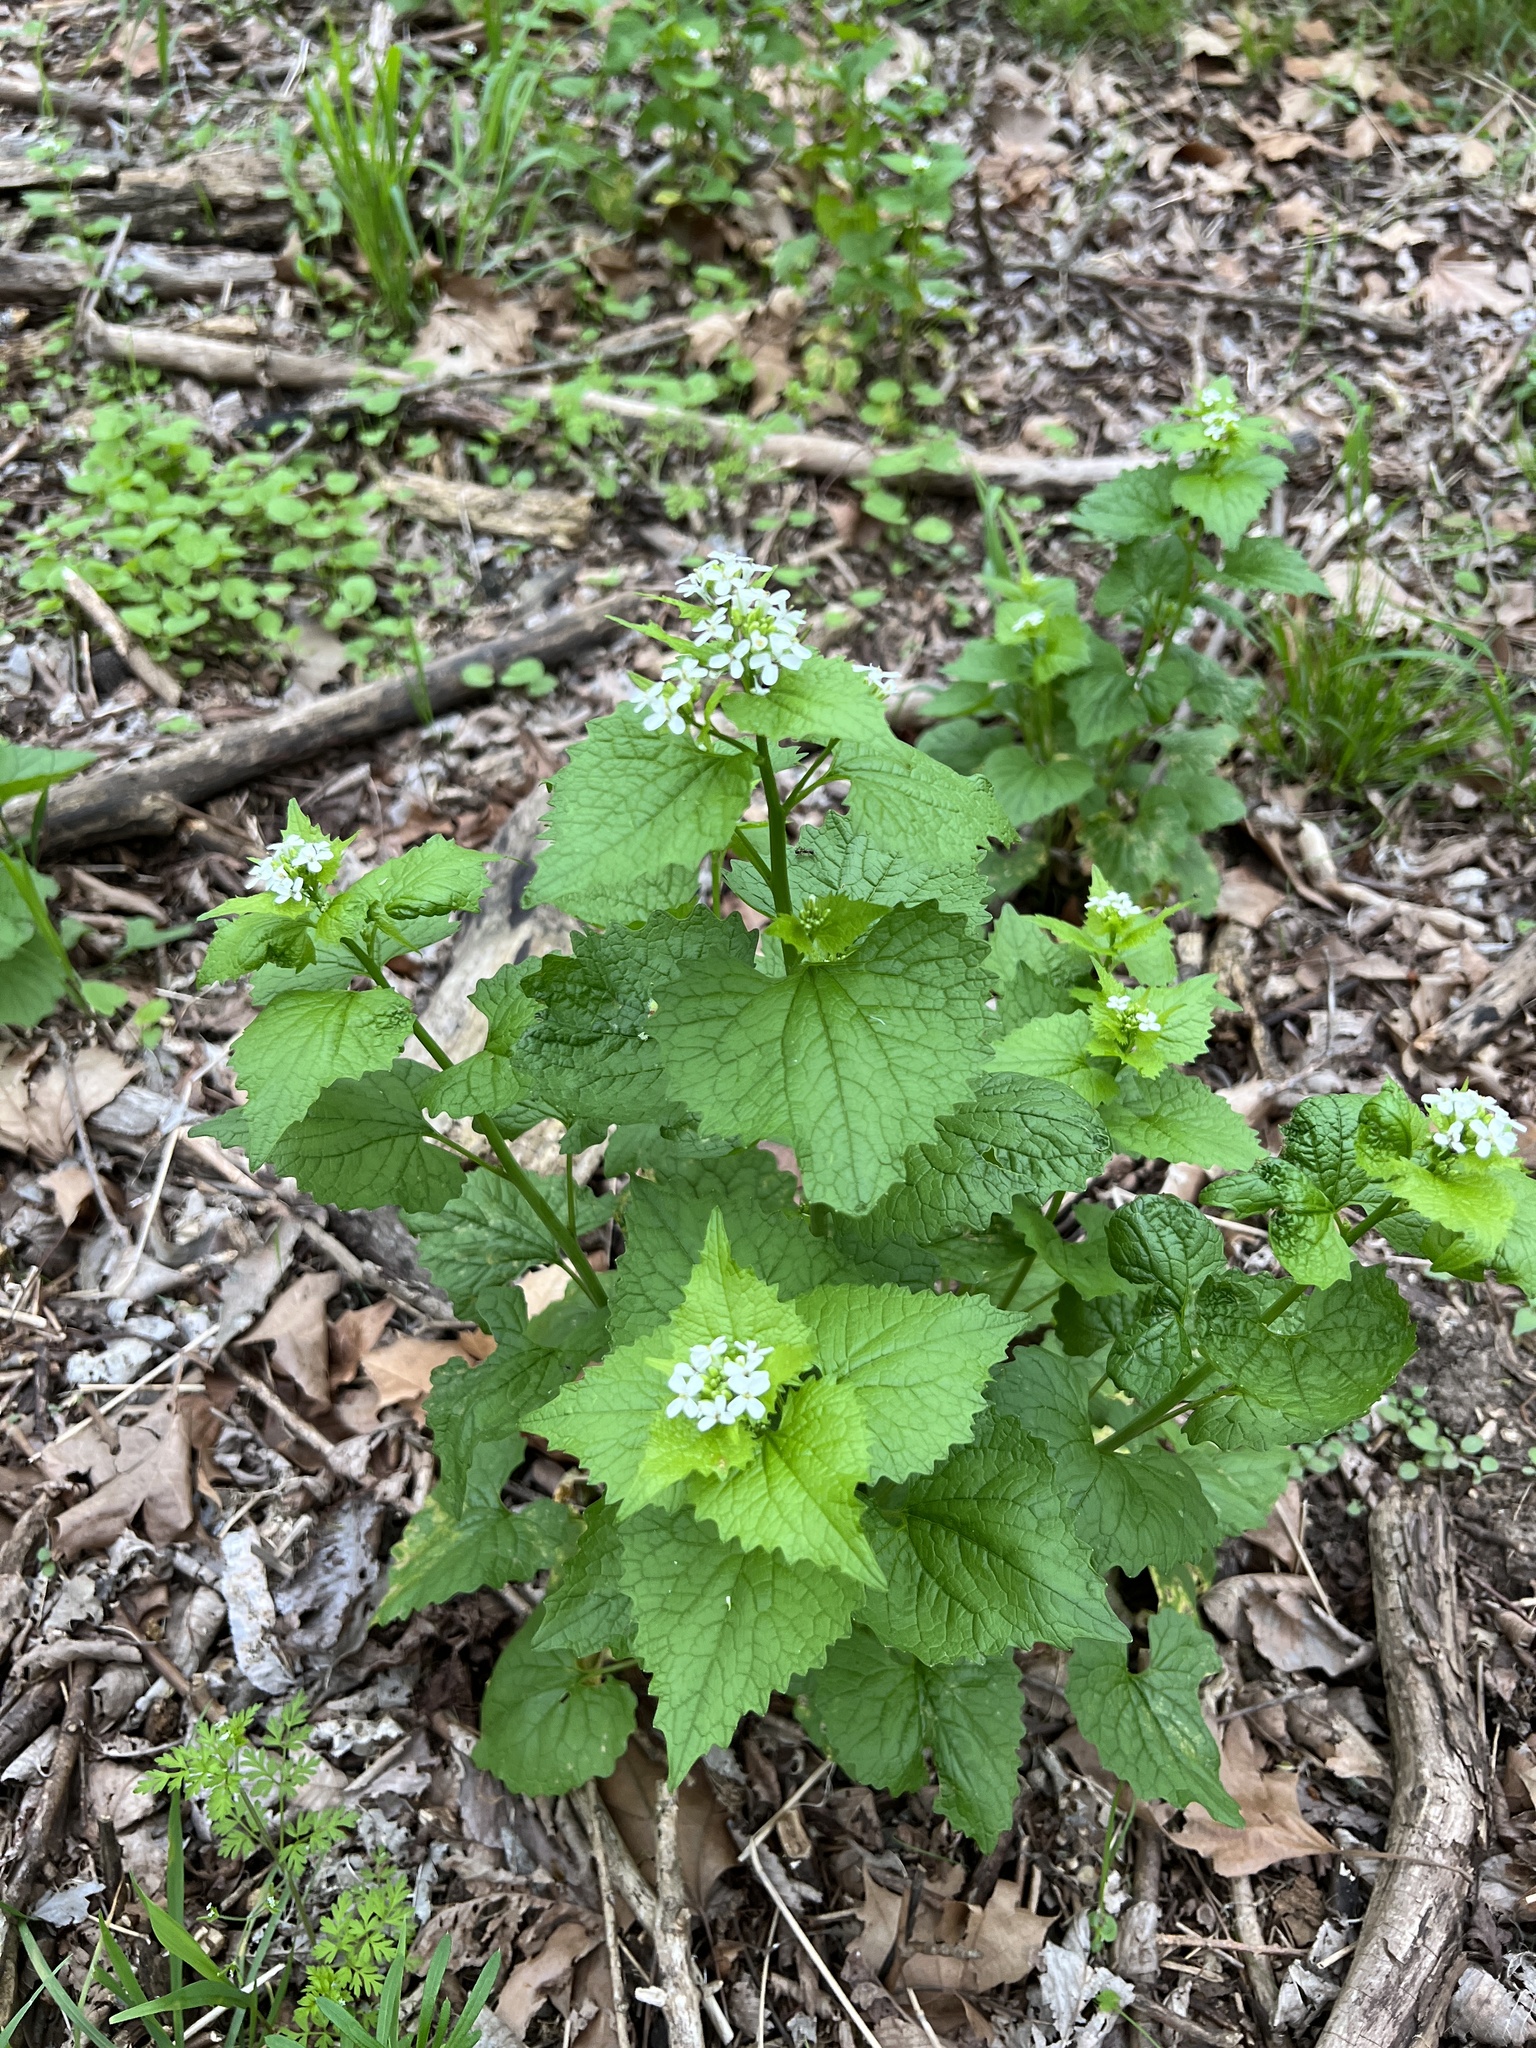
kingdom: Plantae
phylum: Tracheophyta
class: Magnoliopsida
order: Brassicales
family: Brassicaceae
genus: Alliaria
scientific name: Alliaria petiolata
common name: Garlic mustard
